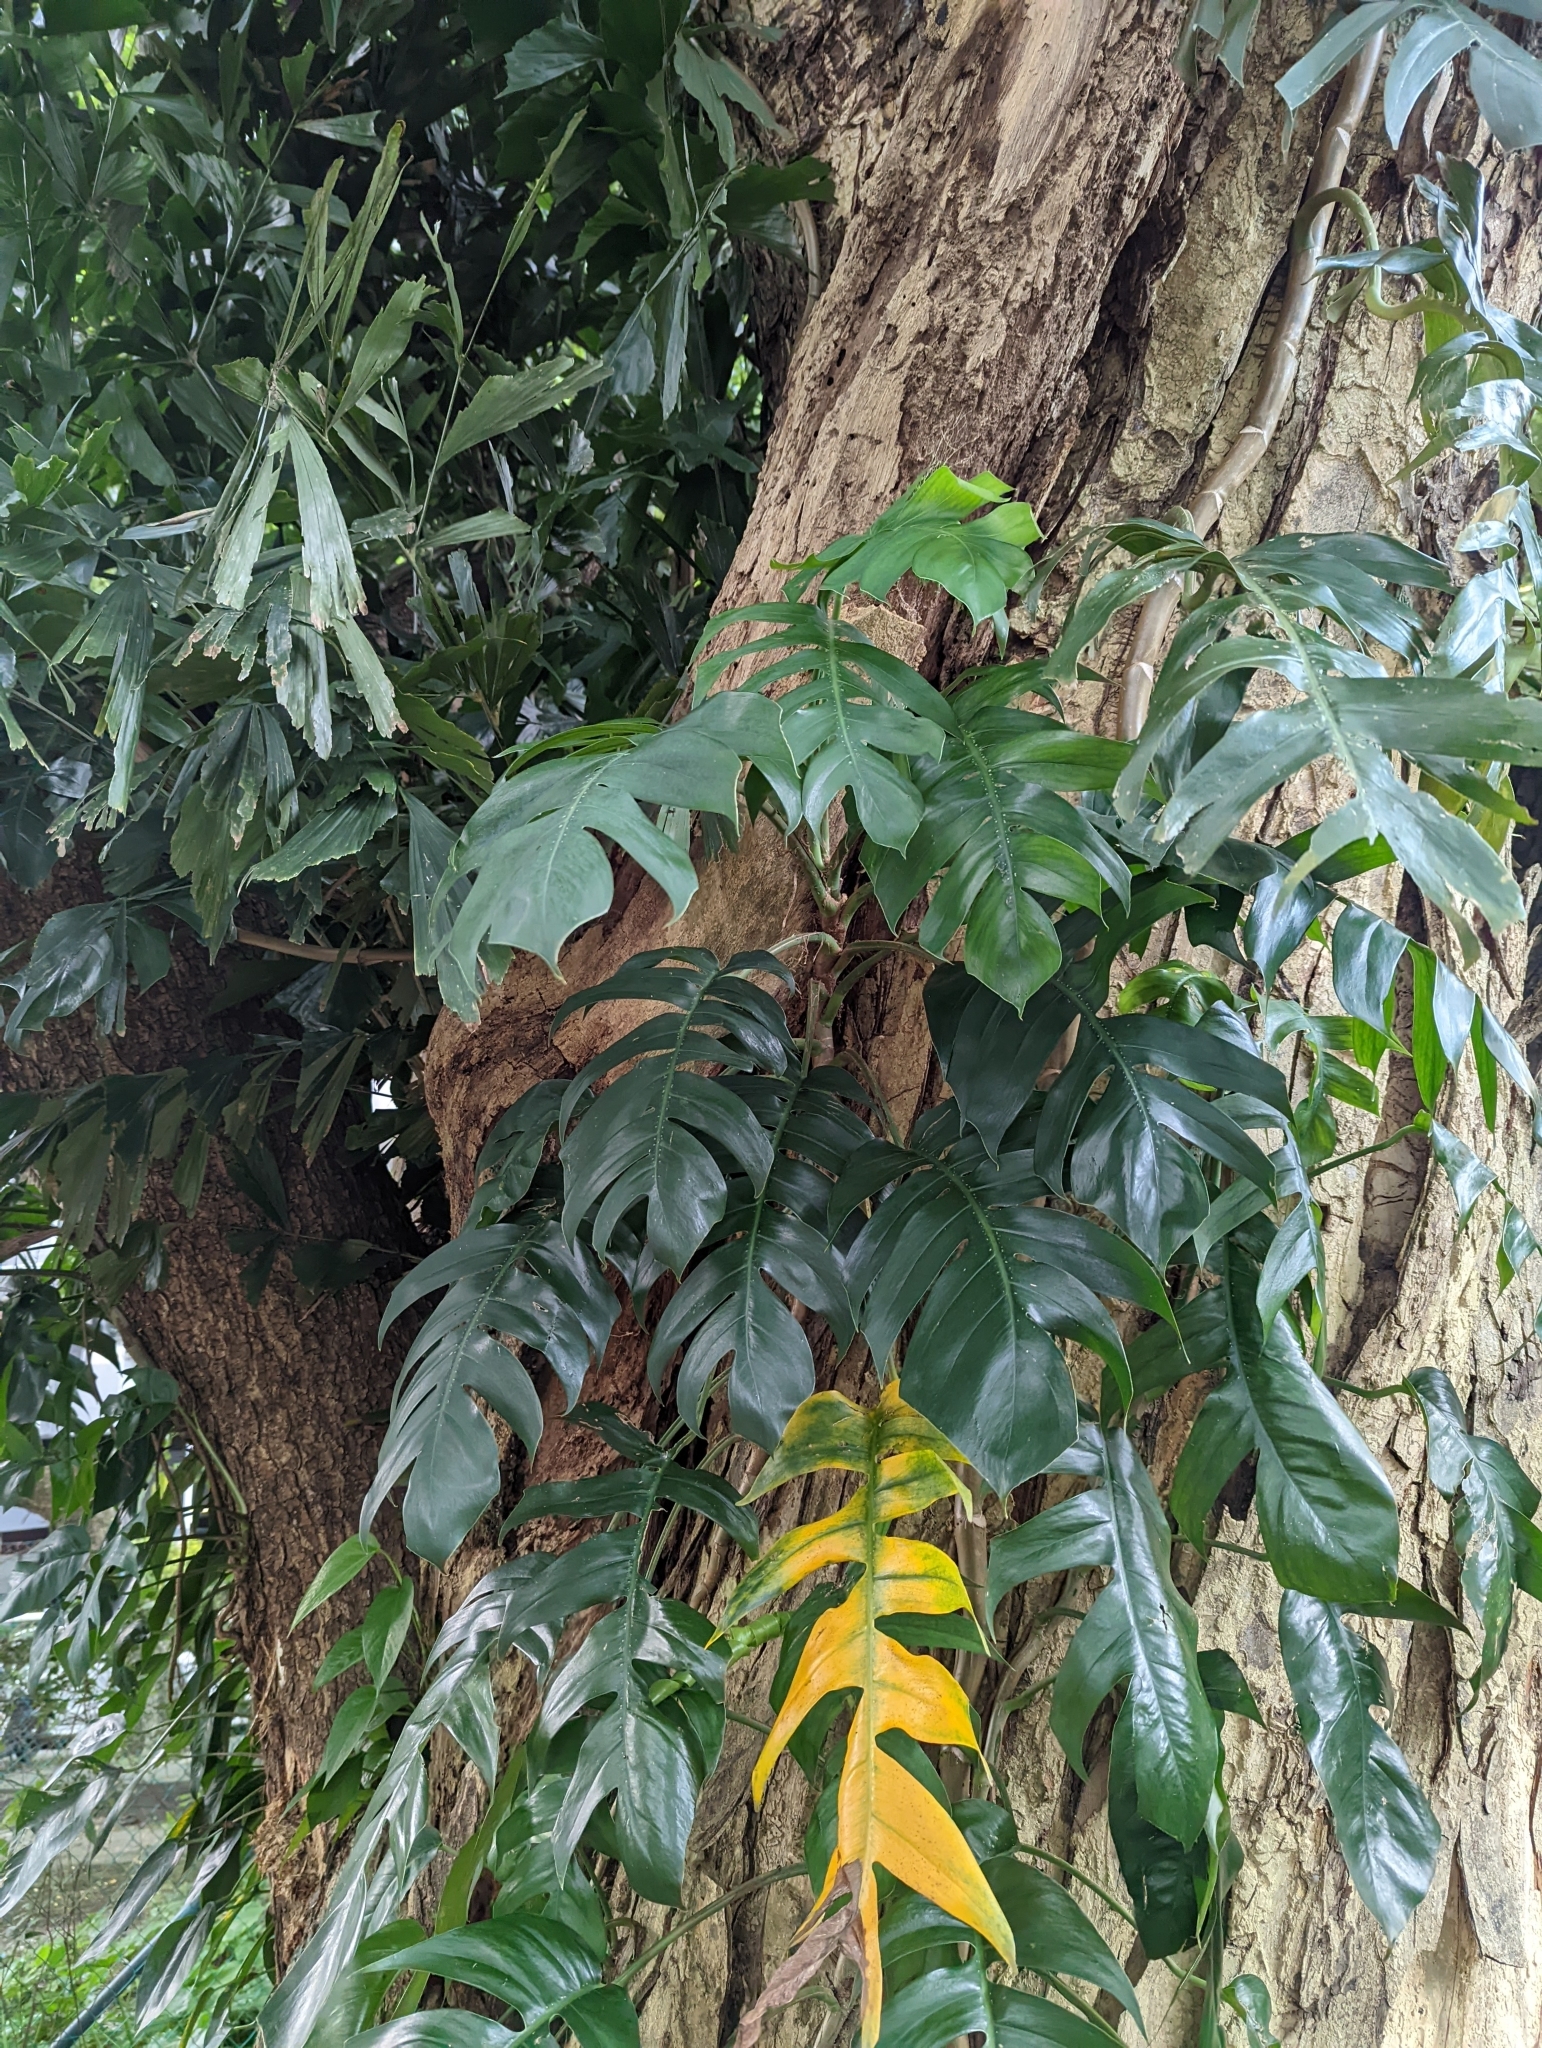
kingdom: Plantae
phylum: Tracheophyta
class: Liliopsida
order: Alismatales
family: Araceae
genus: Epipremnum
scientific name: Epipremnum pinnatum
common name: Centipede tongavine
